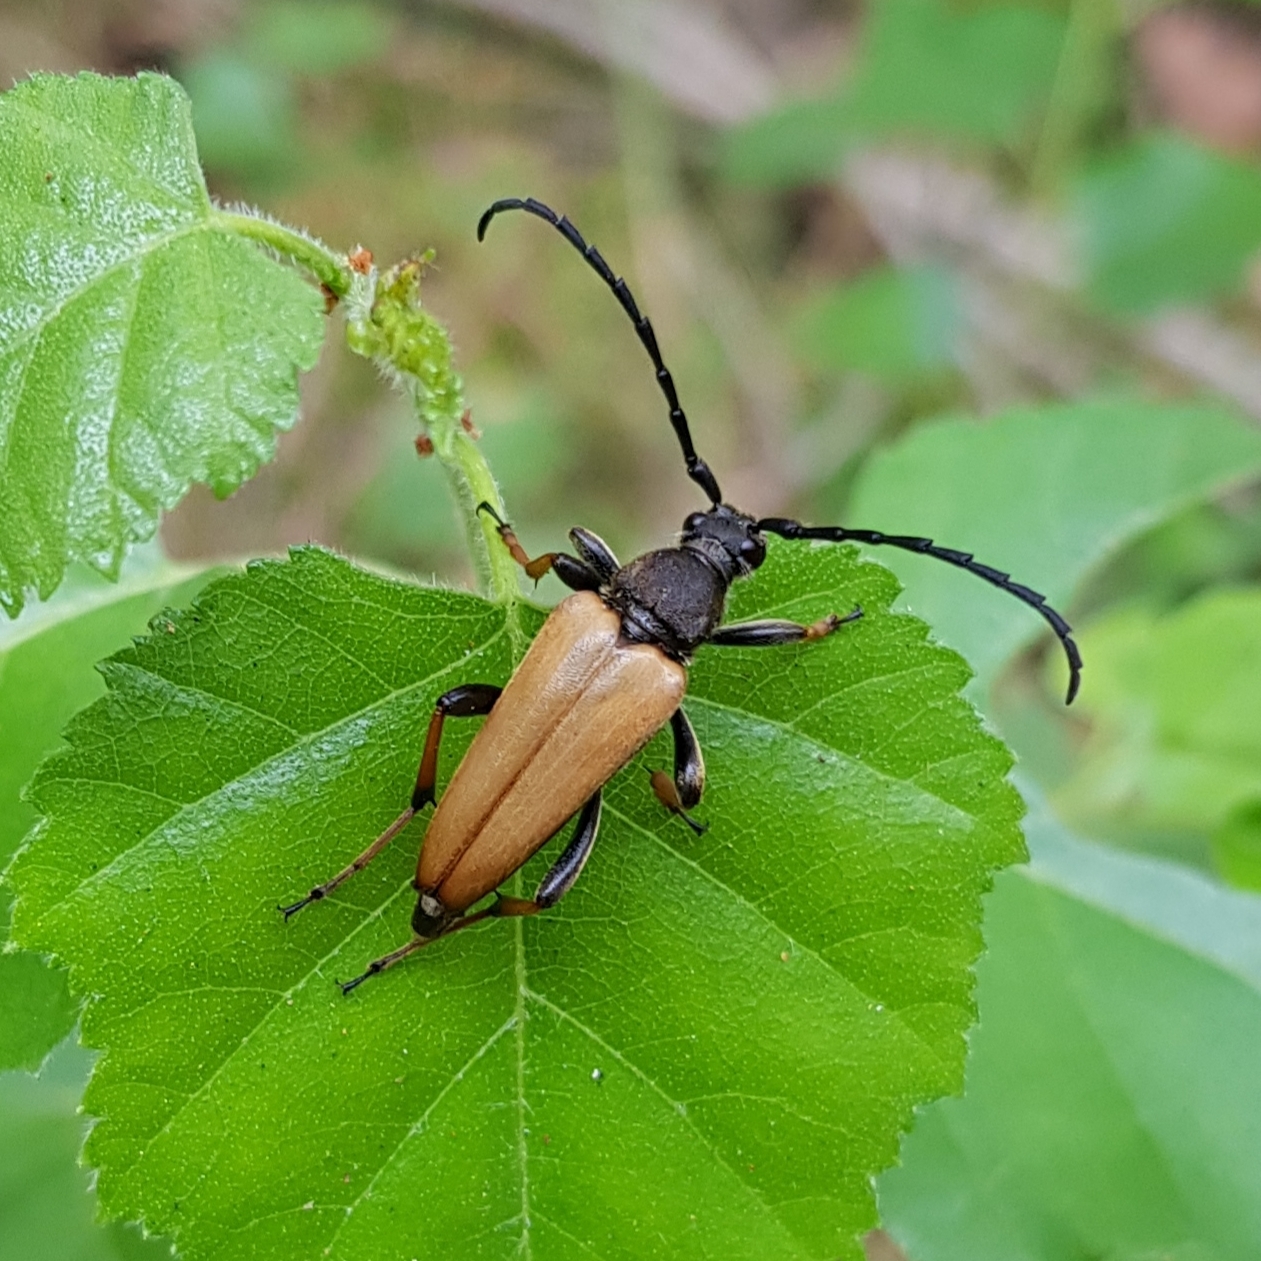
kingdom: Animalia
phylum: Arthropoda
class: Insecta
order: Coleoptera
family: Cerambycidae
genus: Stictoleptura
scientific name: Stictoleptura rubra
